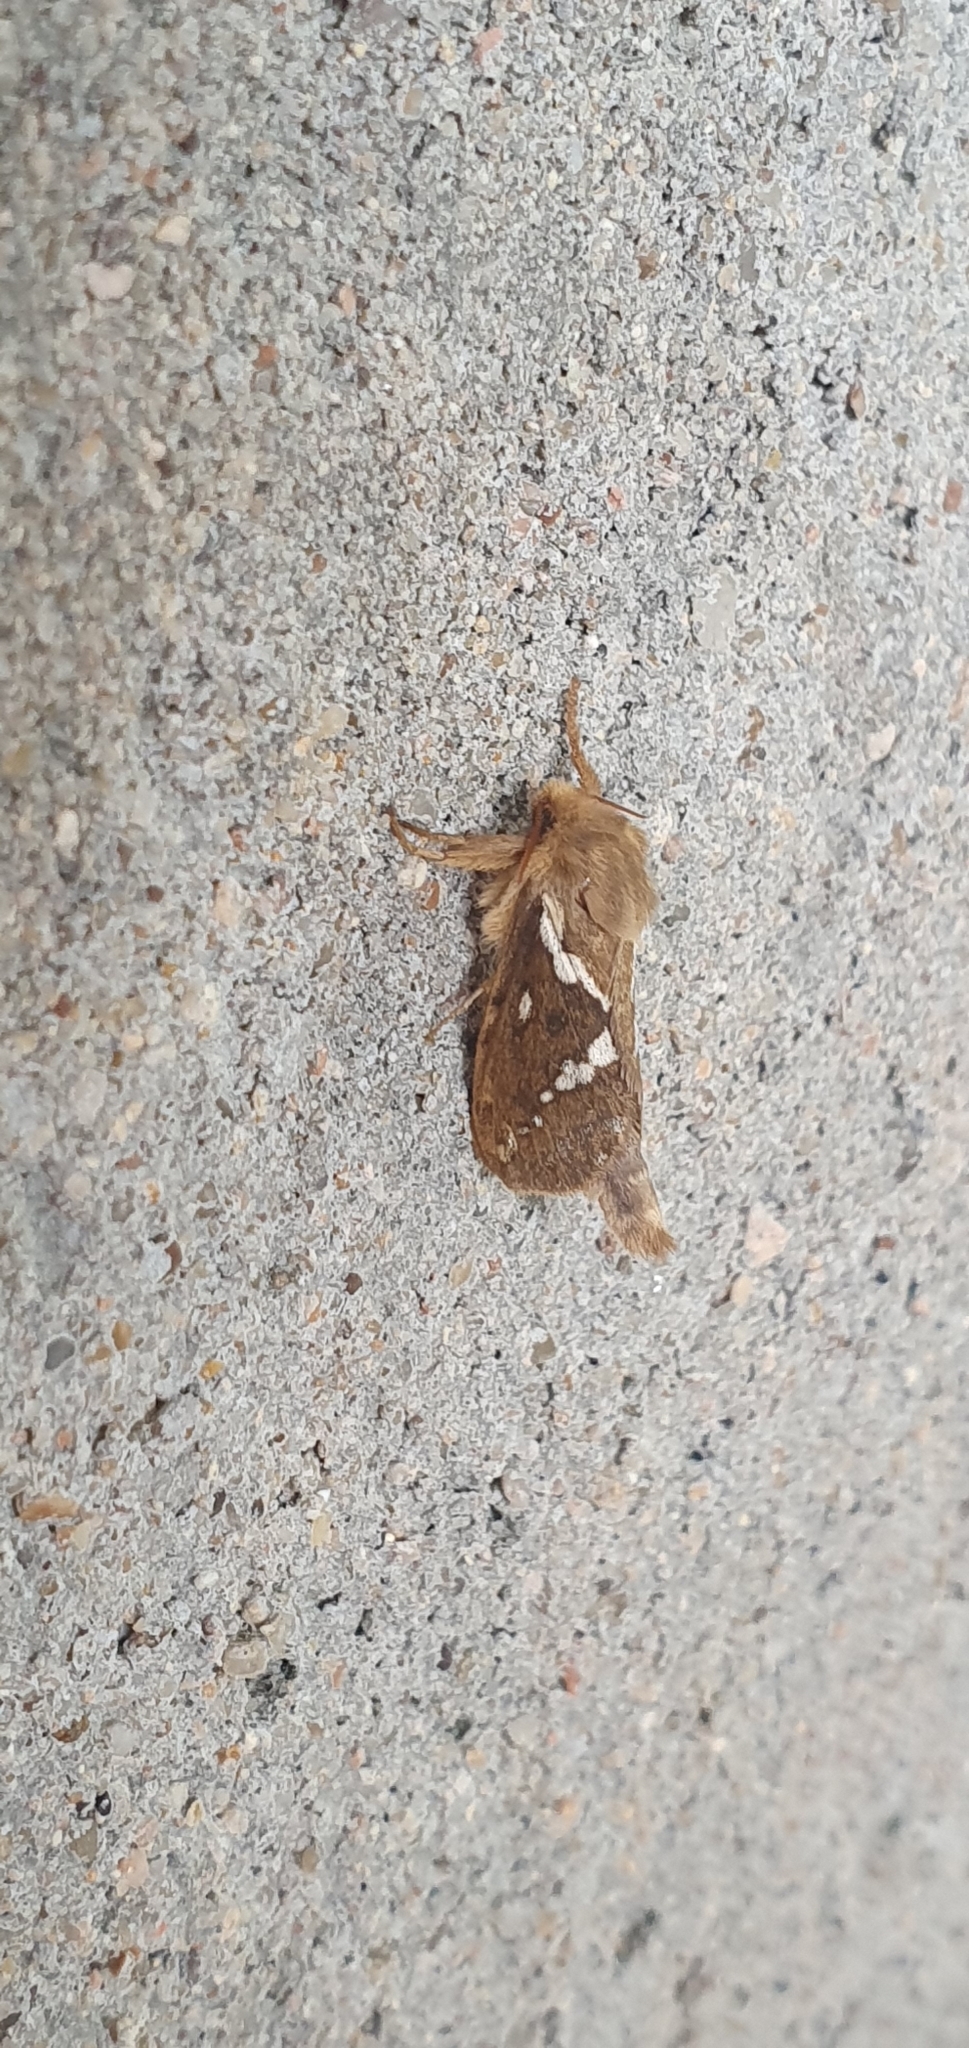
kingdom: Animalia
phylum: Arthropoda
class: Insecta
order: Lepidoptera
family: Hepialidae
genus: Korscheltellus
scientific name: Korscheltellus lupulina
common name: Common swift
